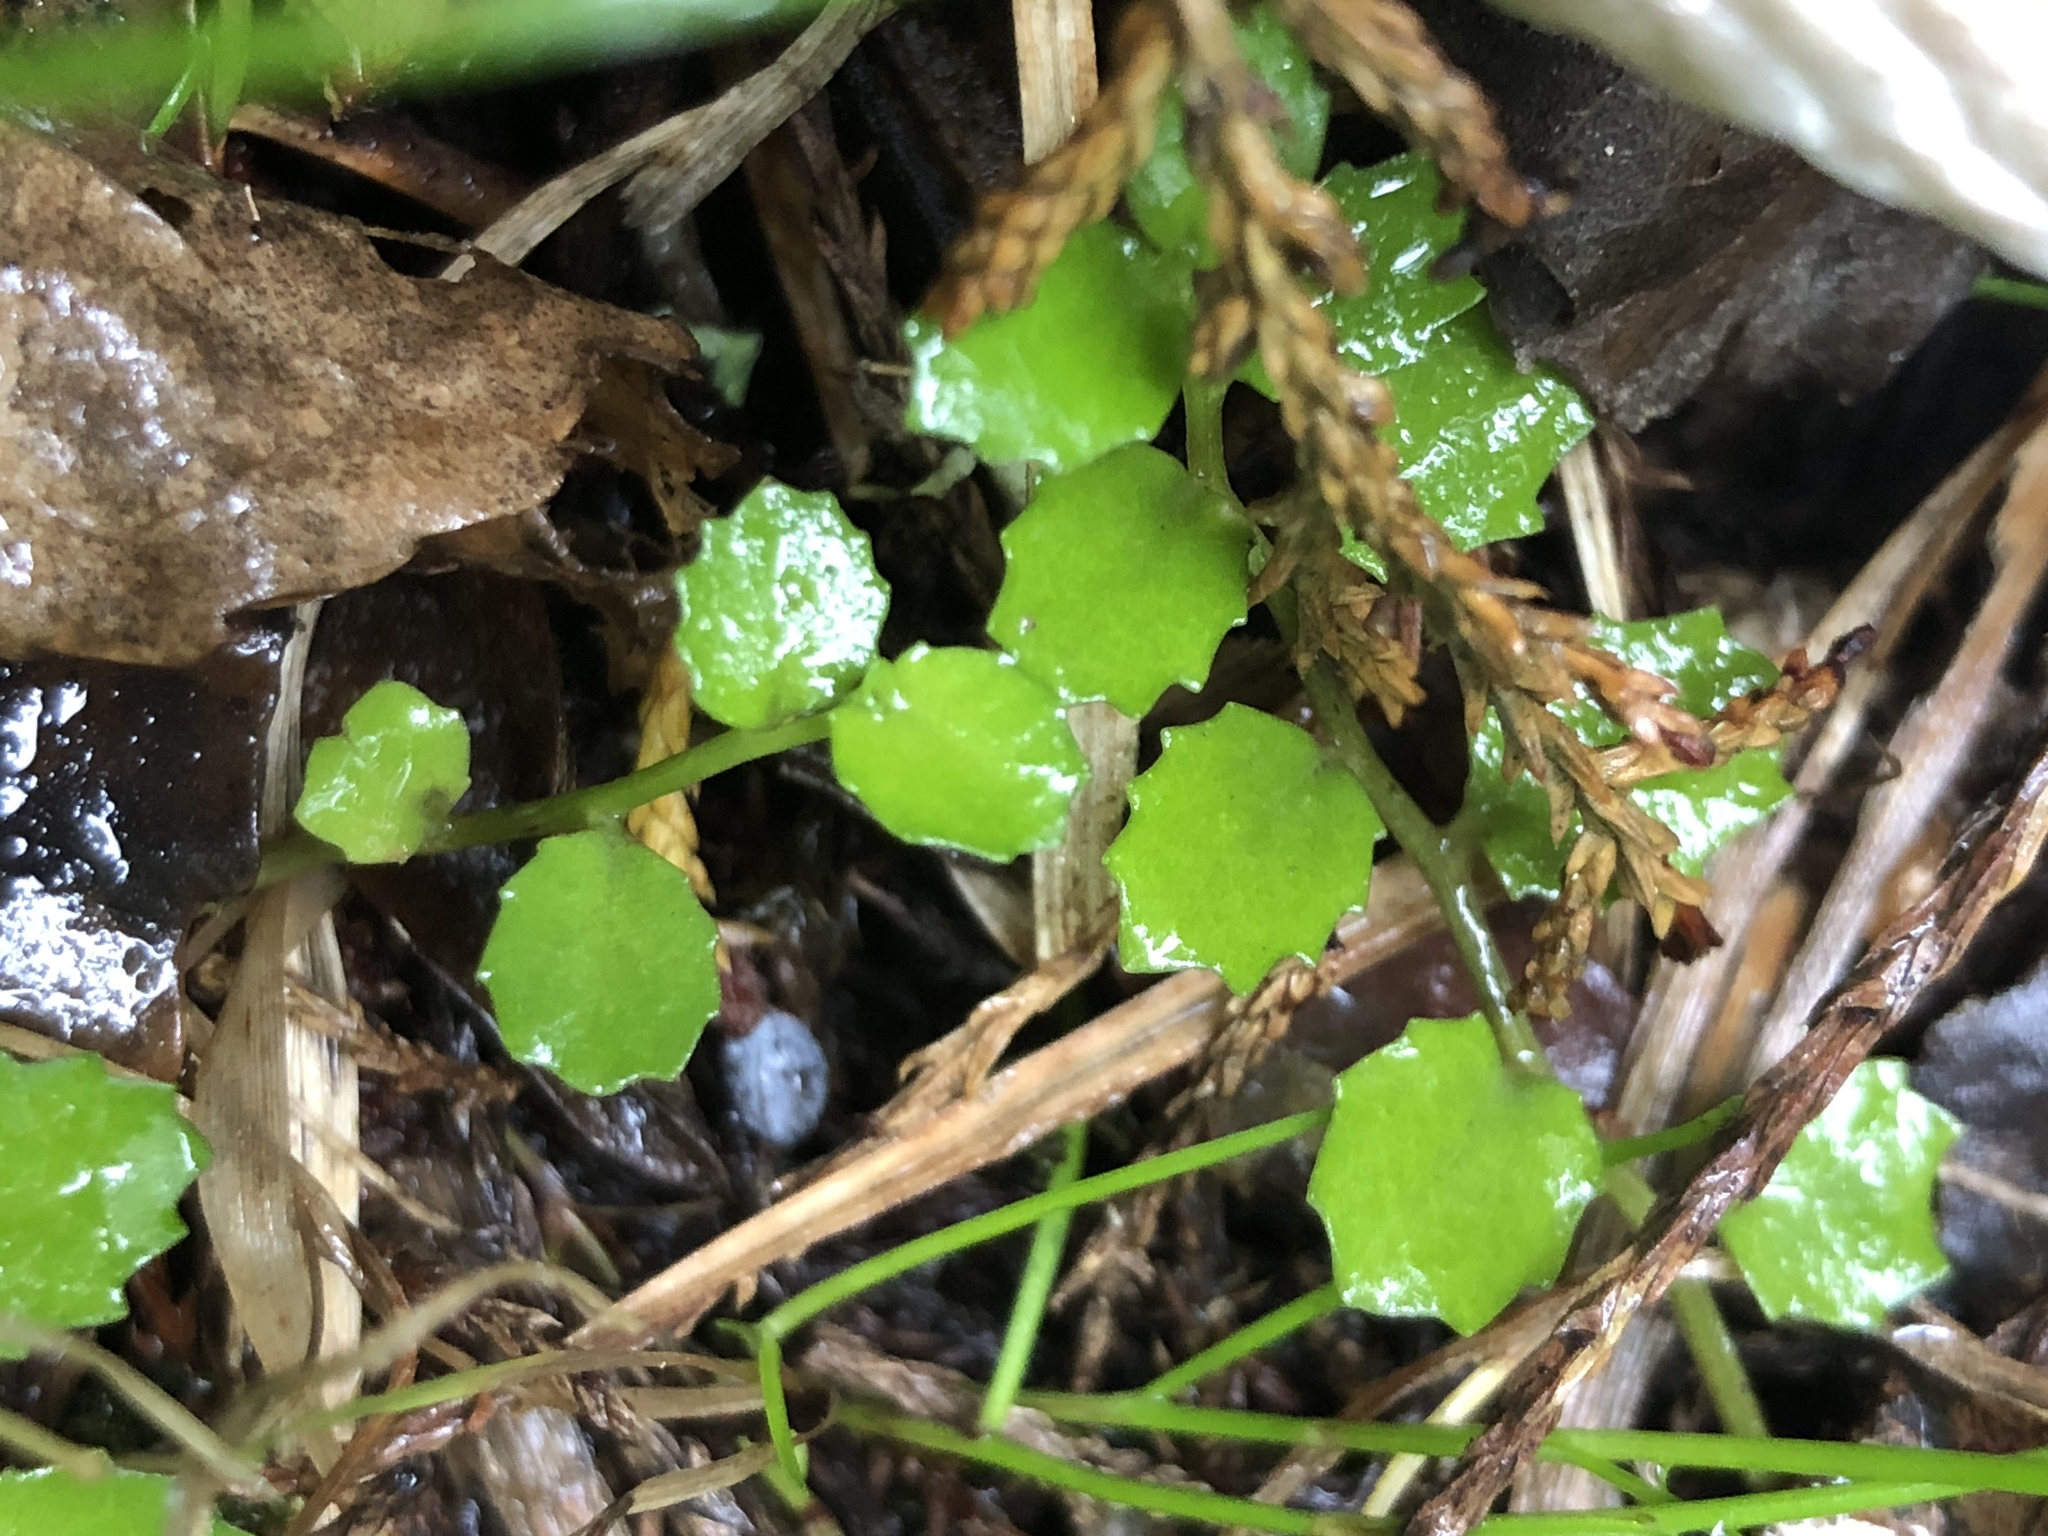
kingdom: Plantae
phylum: Tracheophyta
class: Magnoliopsida
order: Asterales
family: Campanulaceae
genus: Lobelia
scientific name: Lobelia angulata
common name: Lawn lobelia
